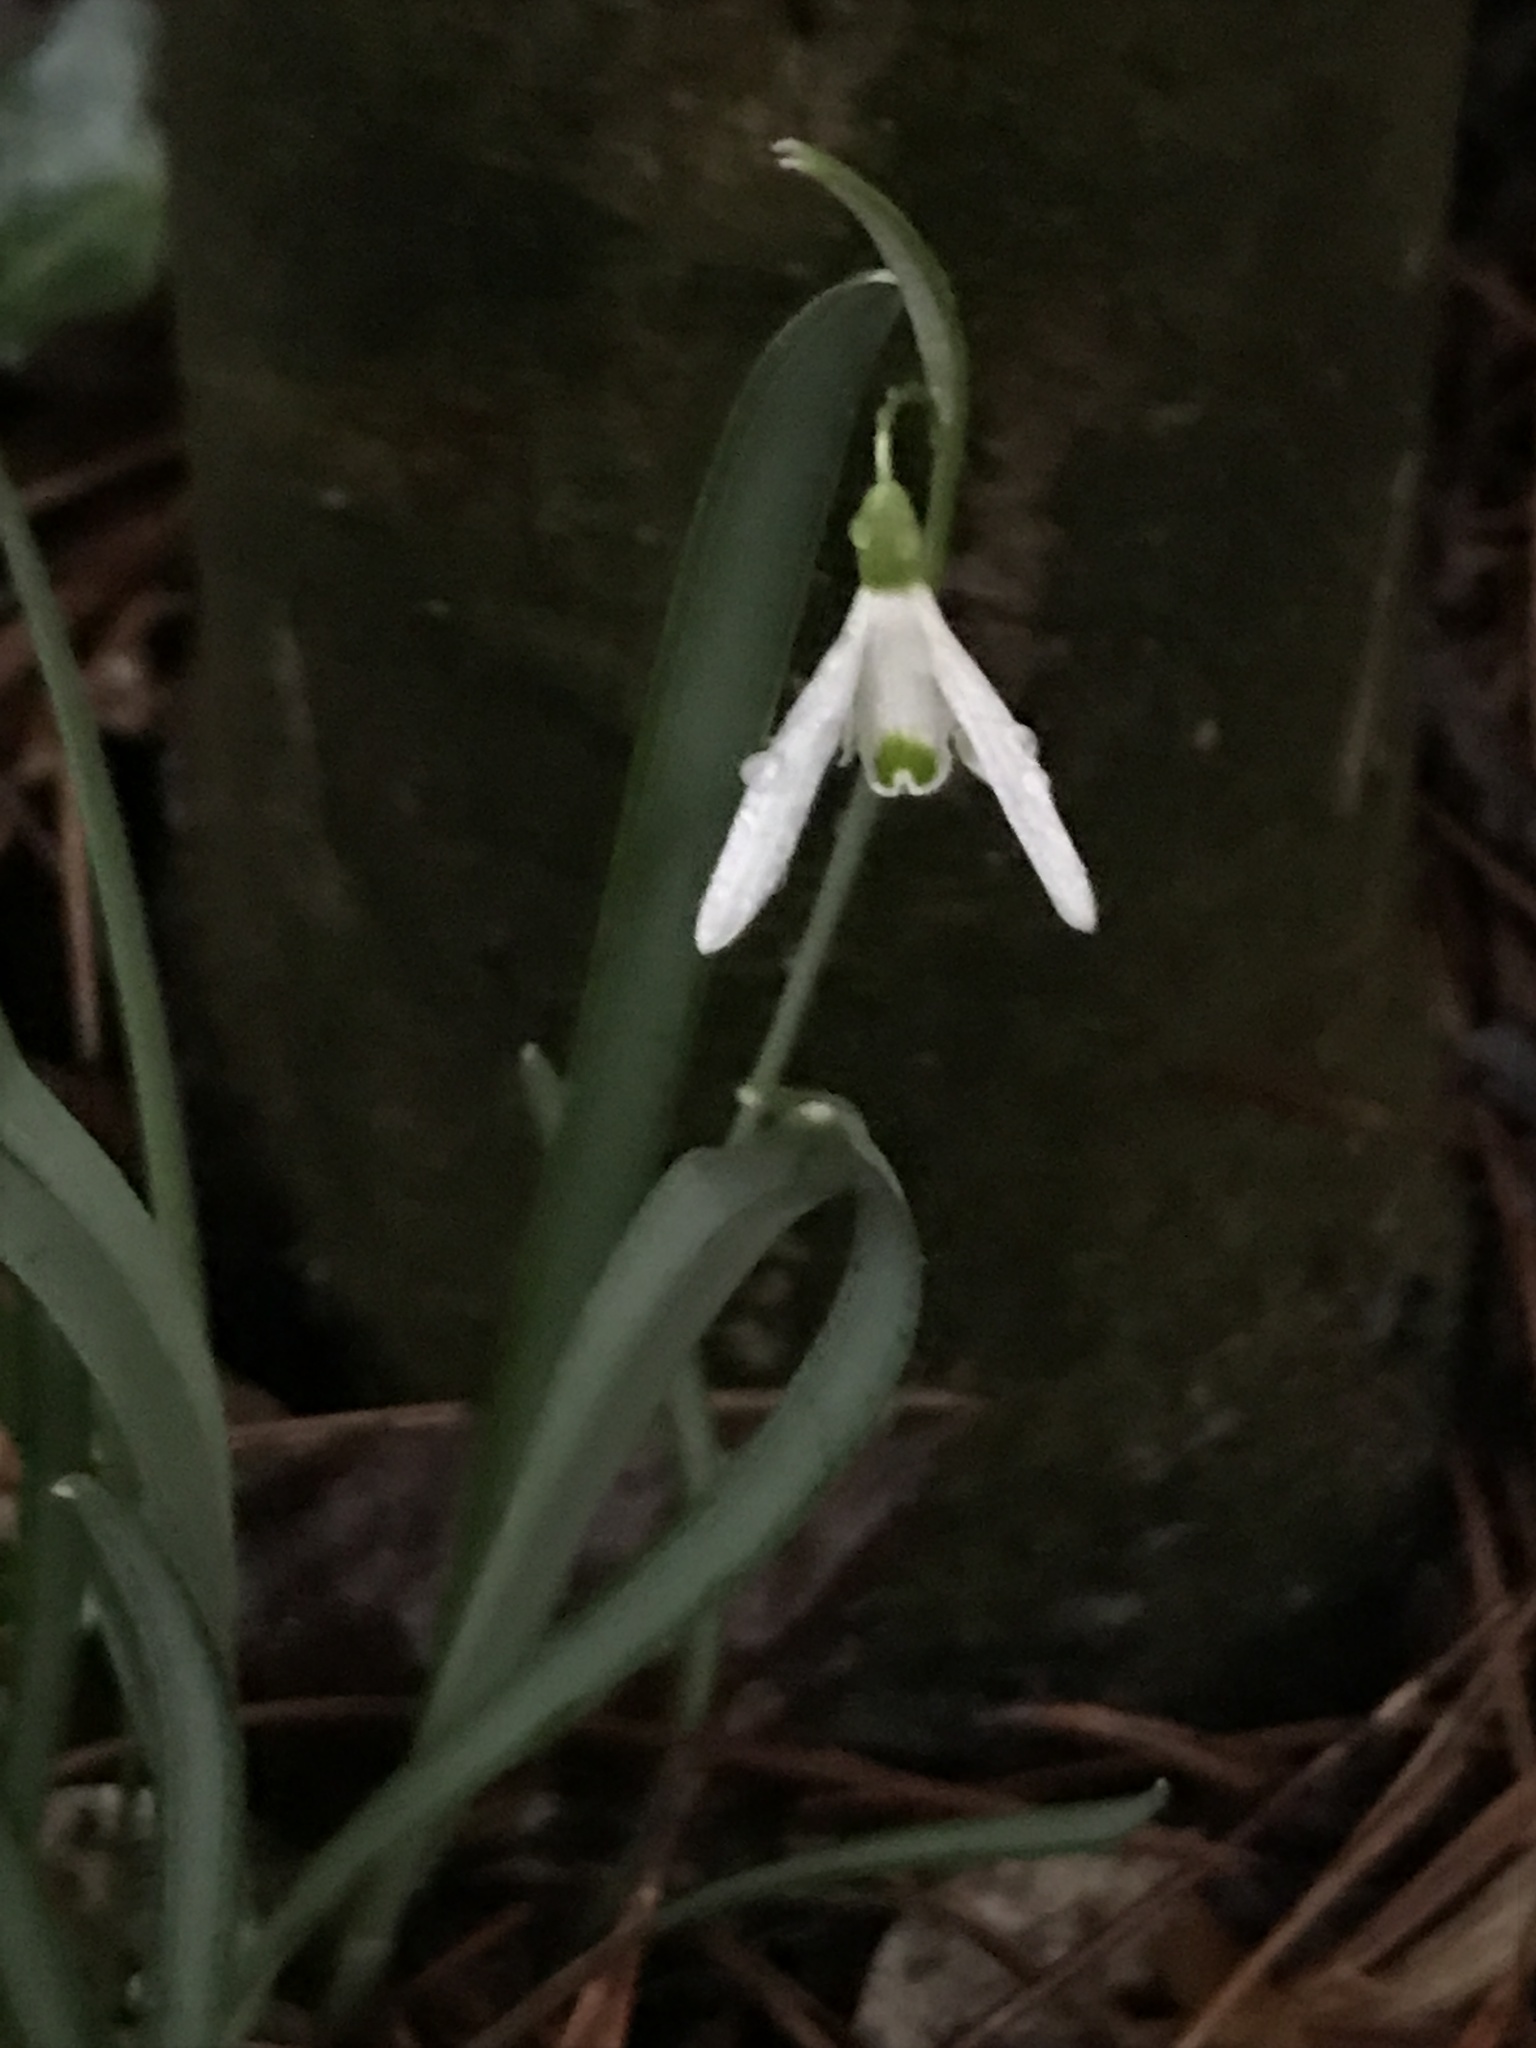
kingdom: Plantae
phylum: Tracheophyta
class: Liliopsida
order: Asparagales
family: Amaryllidaceae
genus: Galanthus
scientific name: Galanthus nivalis
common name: Snowdrop
